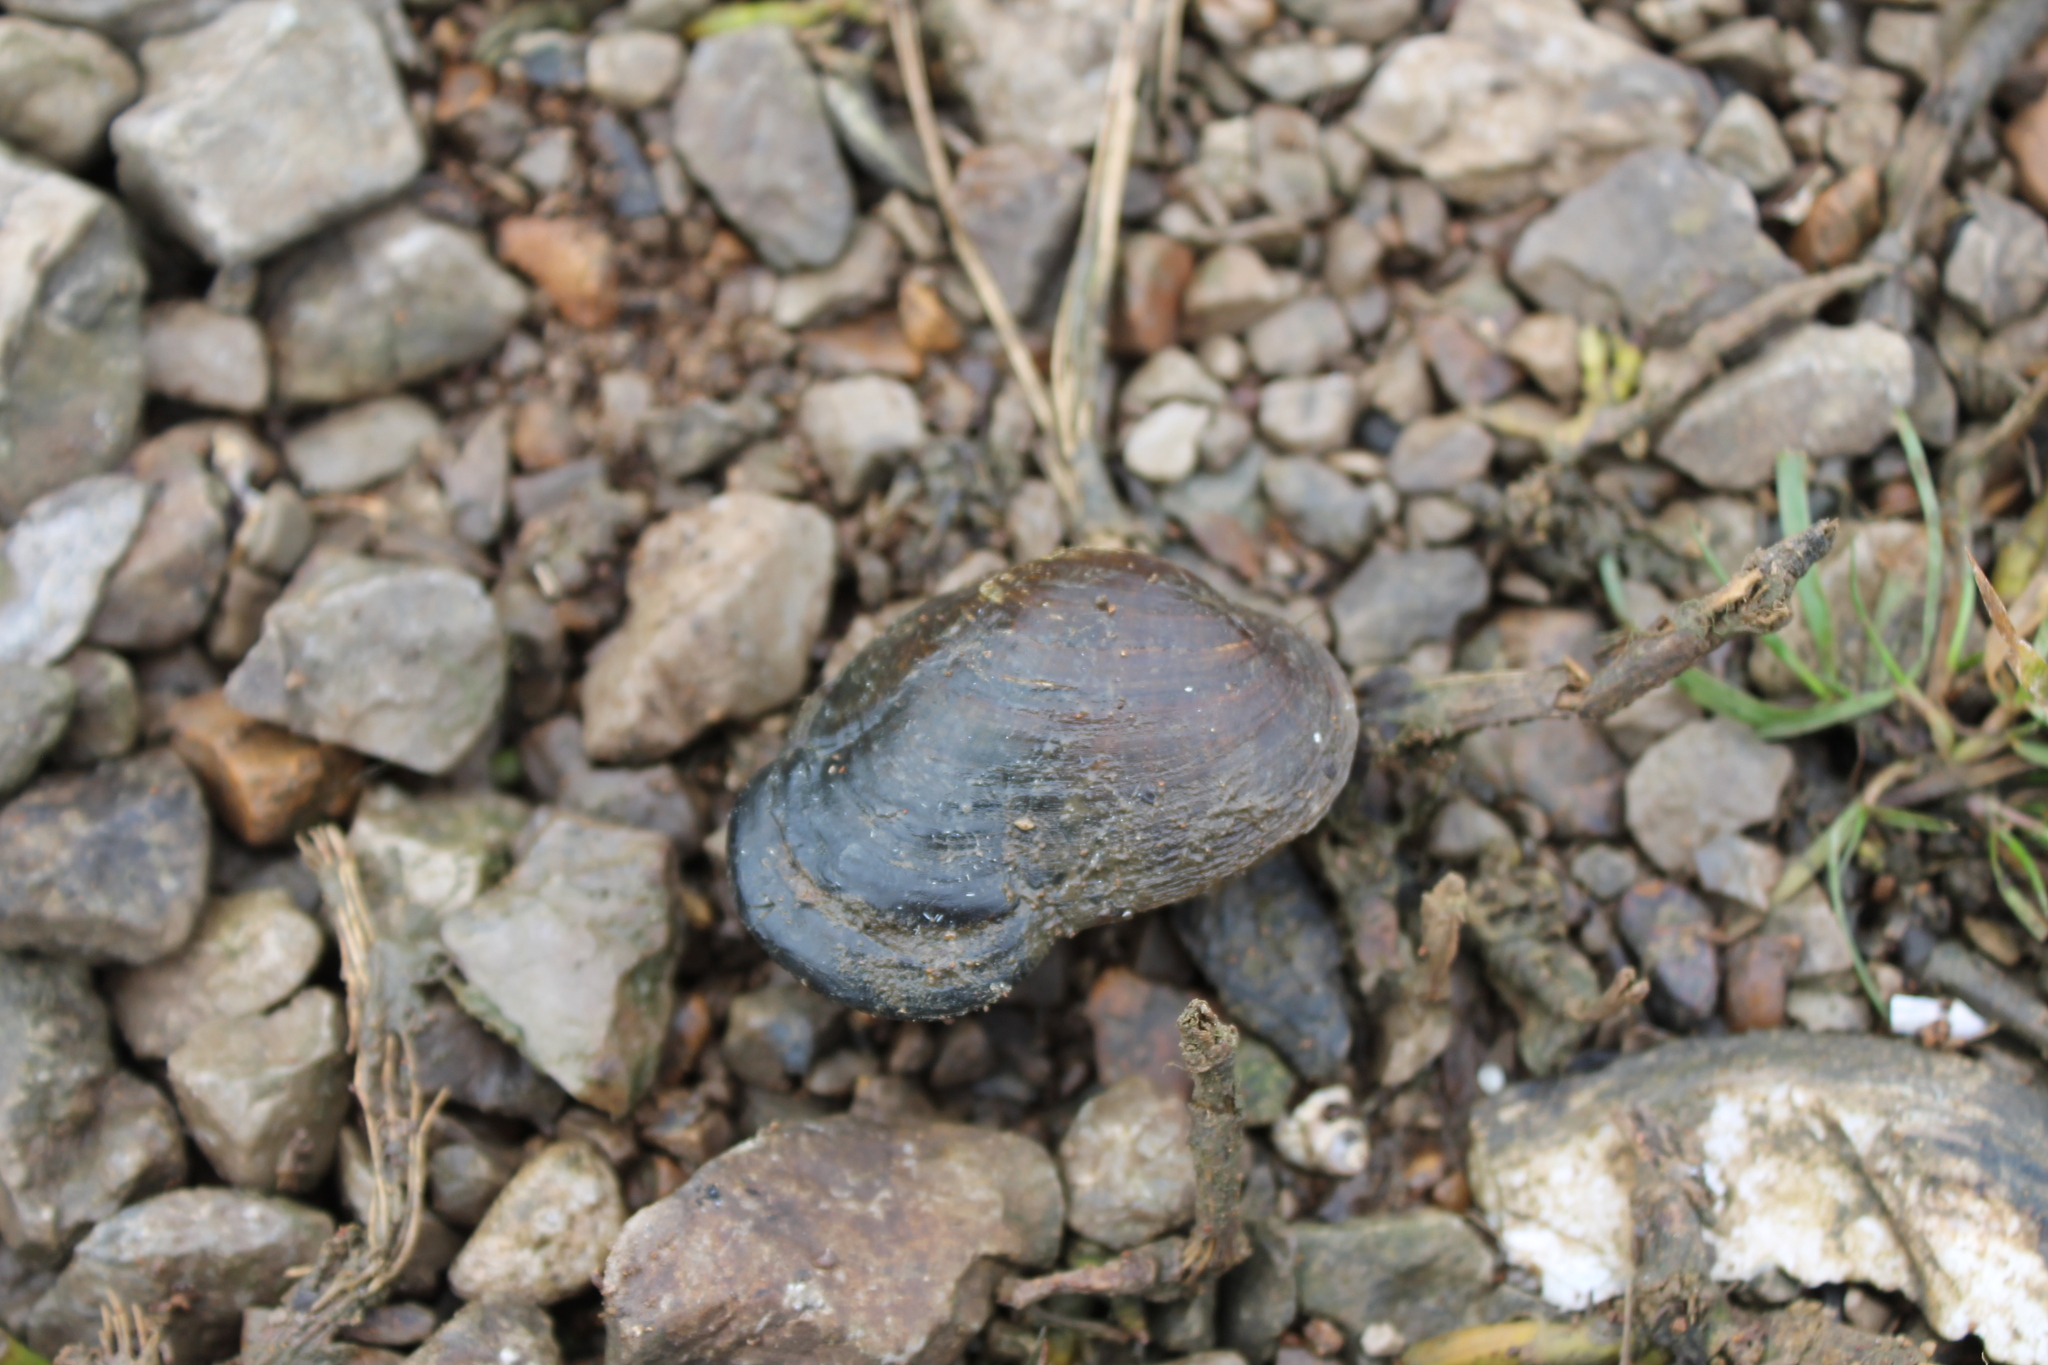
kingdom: Animalia
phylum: Mollusca
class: Bivalvia
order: Unionida
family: Unionidae
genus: Epioblasma
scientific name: Epioblasma ahlstedti
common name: Duck river dartersnapper
